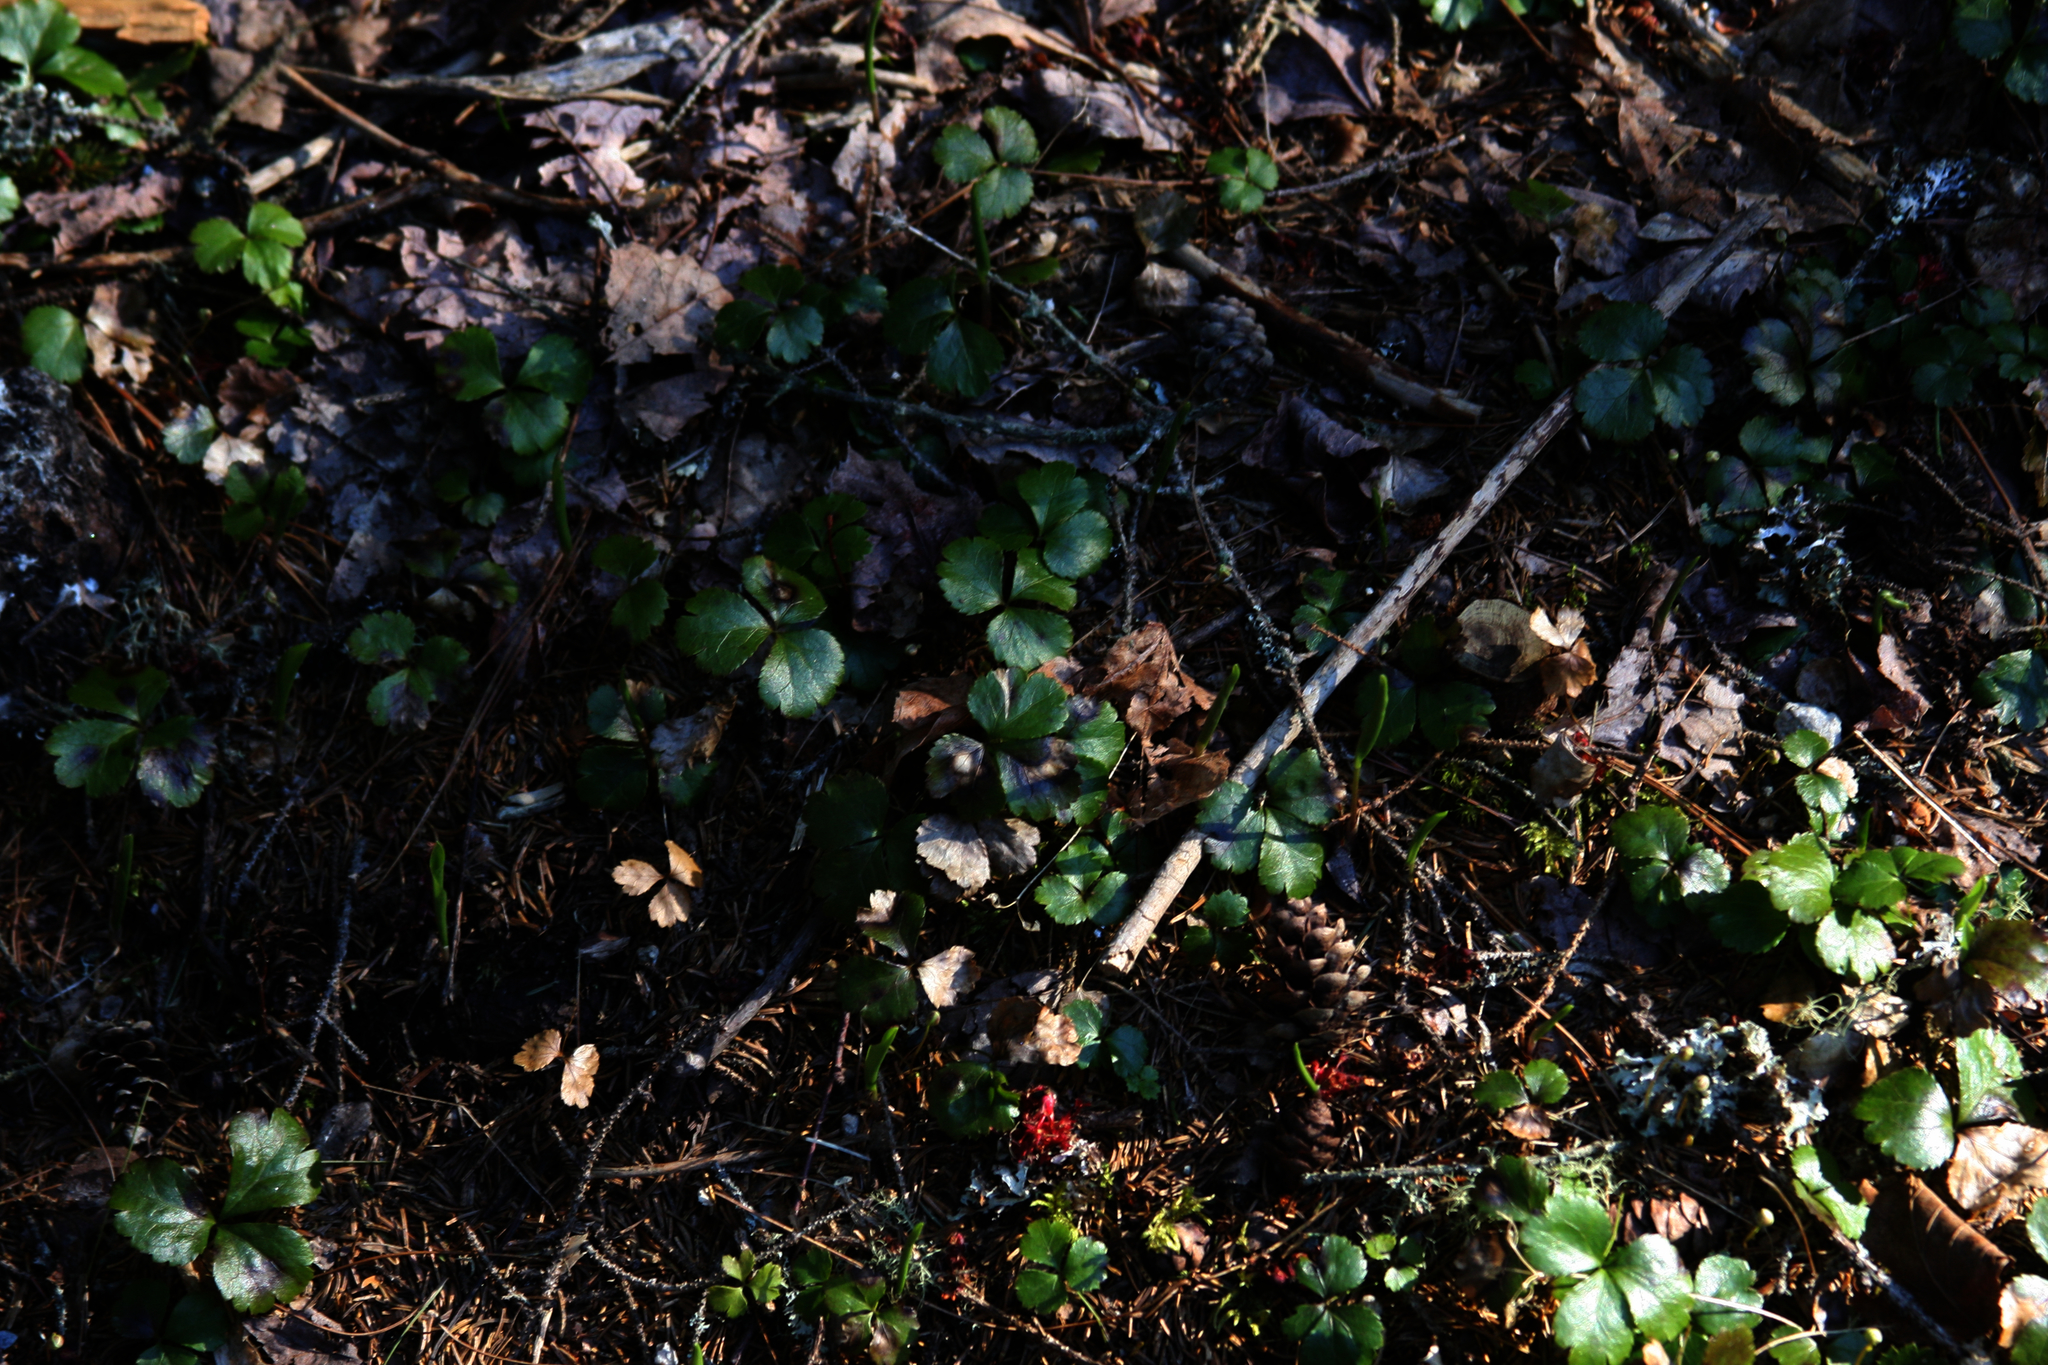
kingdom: Plantae
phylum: Tracheophyta
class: Magnoliopsida
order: Ranunculales
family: Ranunculaceae
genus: Coptis
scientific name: Coptis trifolia
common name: Canker-root
